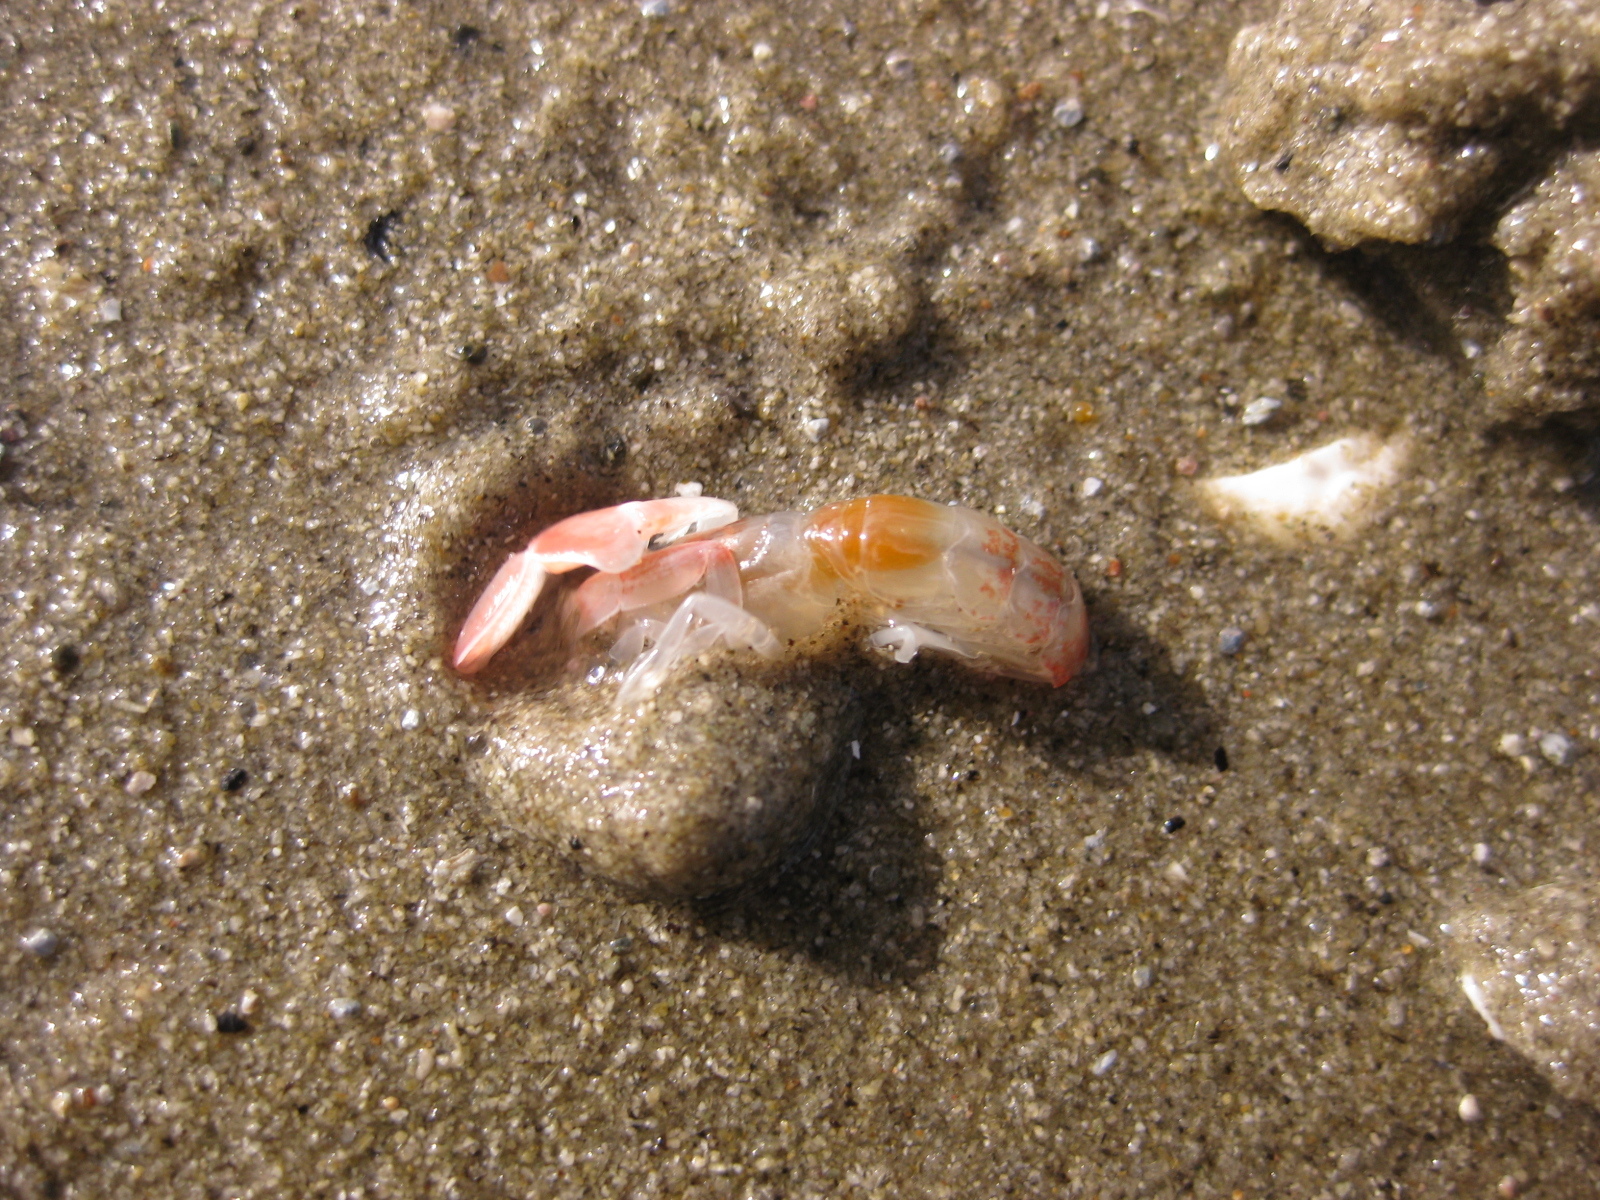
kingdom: Animalia
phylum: Arthropoda
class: Malacostraca
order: Decapoda
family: Callianassidae
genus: Filhollianassa
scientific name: Filhollianassa filholi
